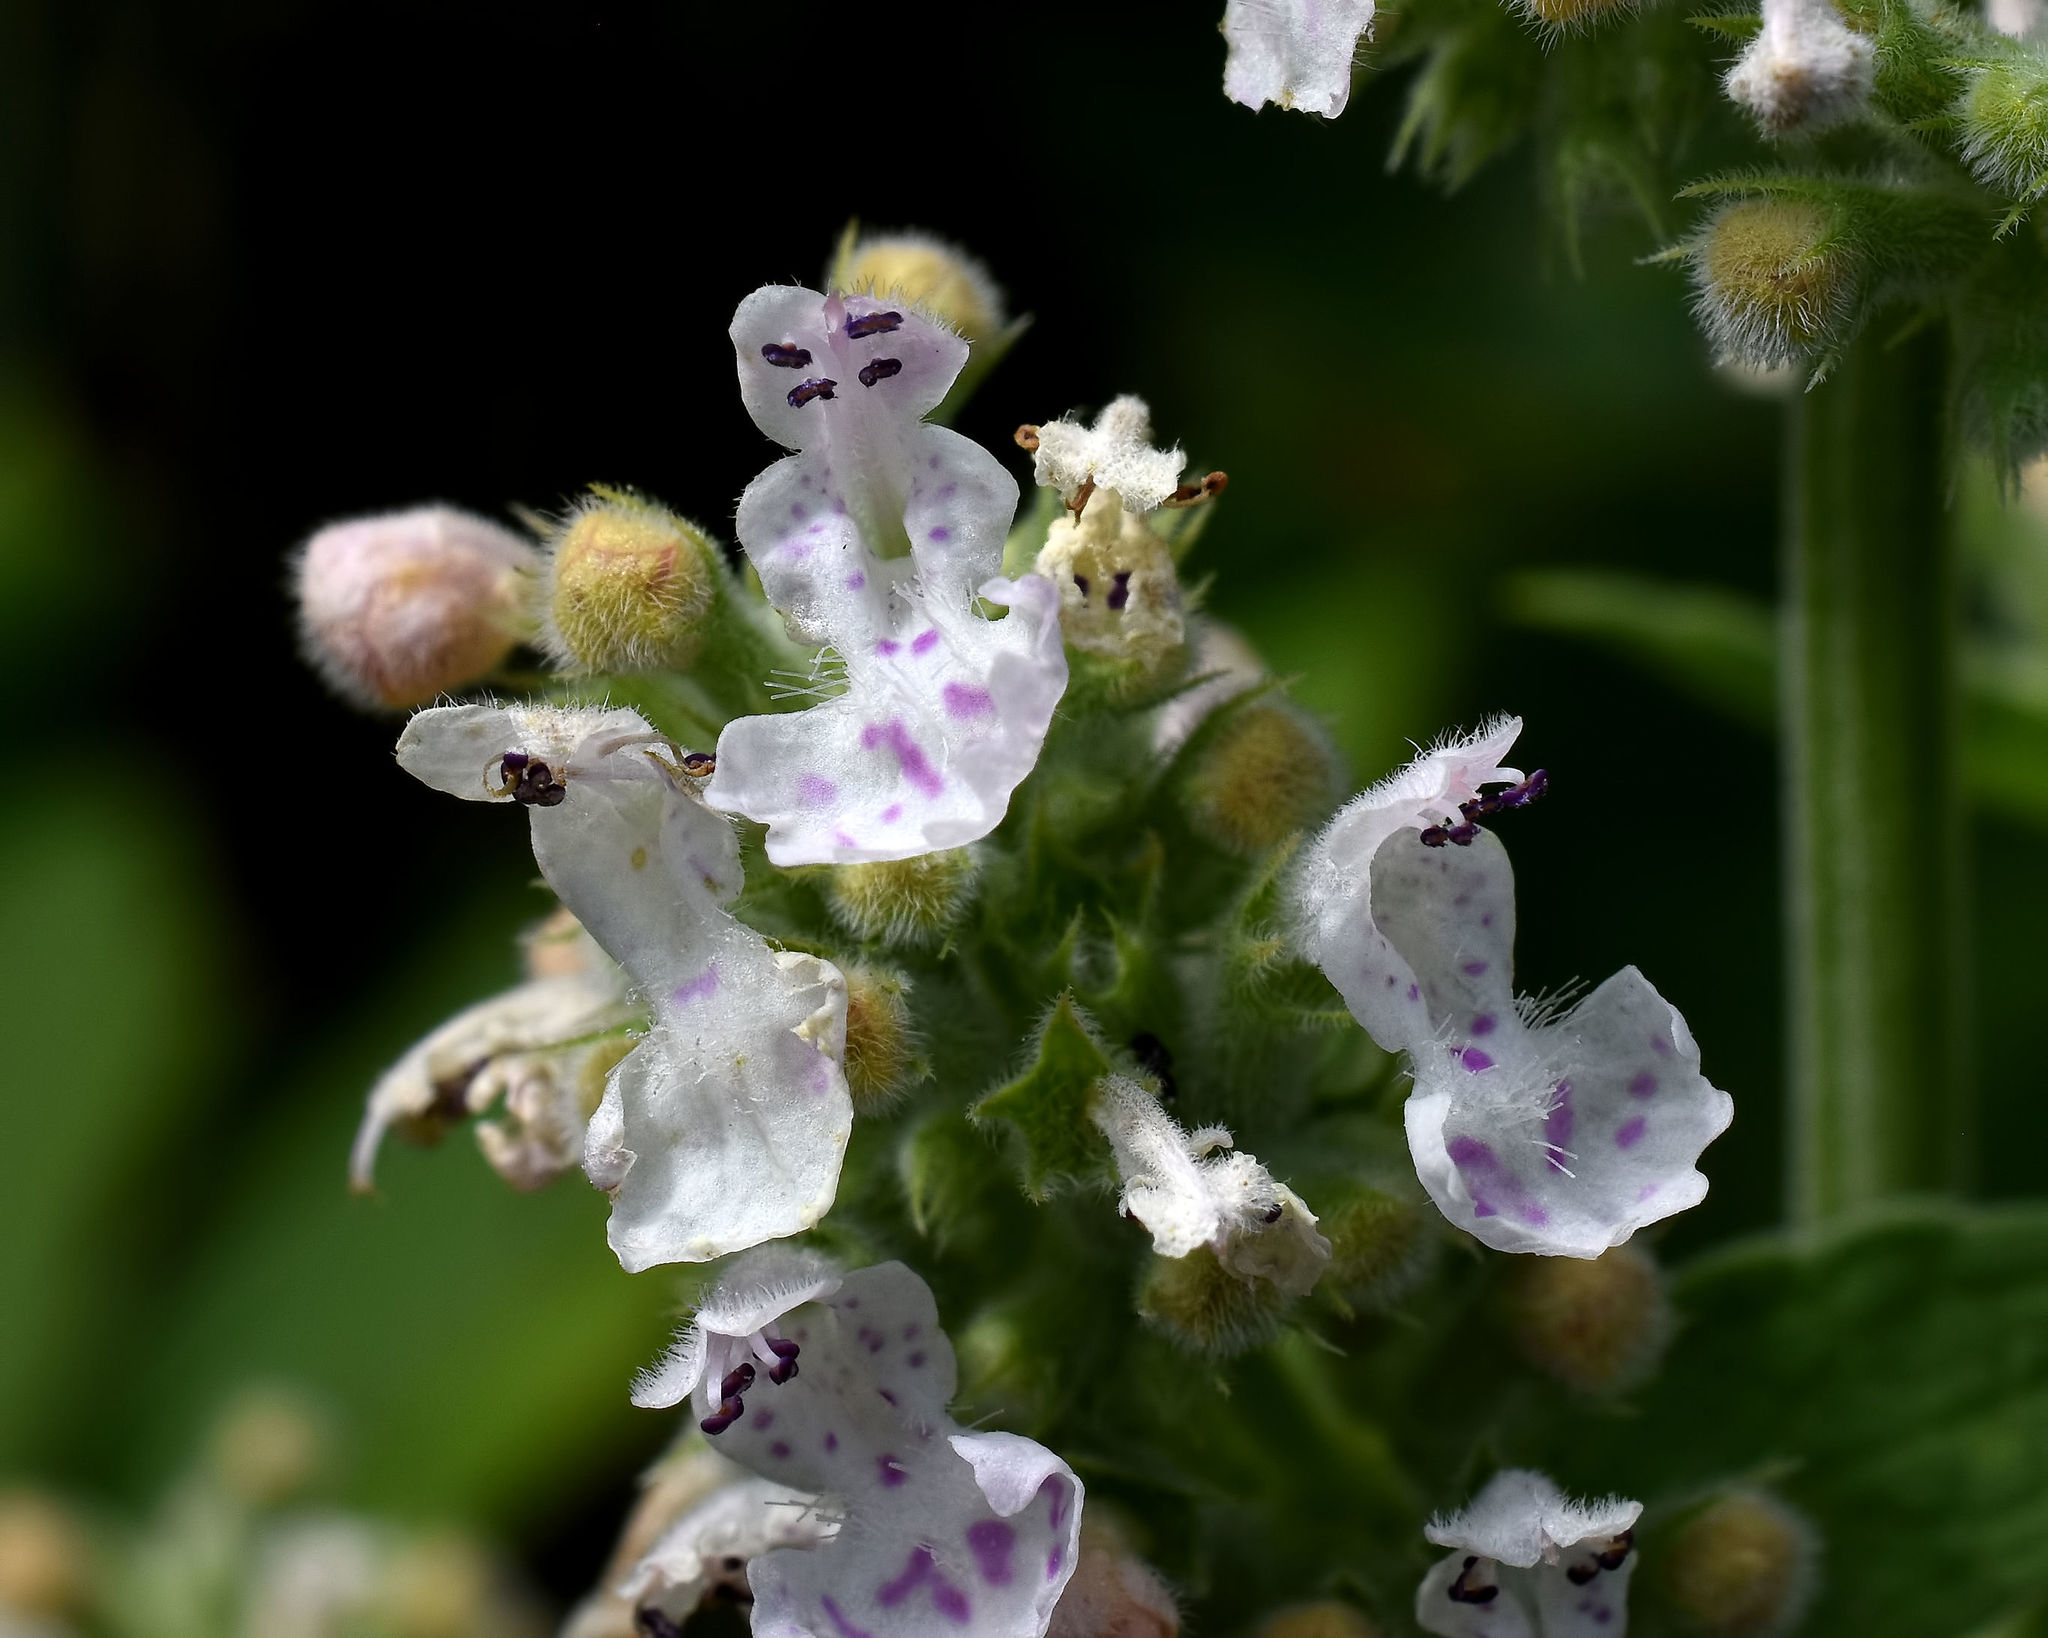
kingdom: Plantae
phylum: Tracheophyta
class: Magnoliopsida
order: Lamiales
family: Lamiaceae
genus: Nepeta
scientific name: Nepeta cataria
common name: Catnip
